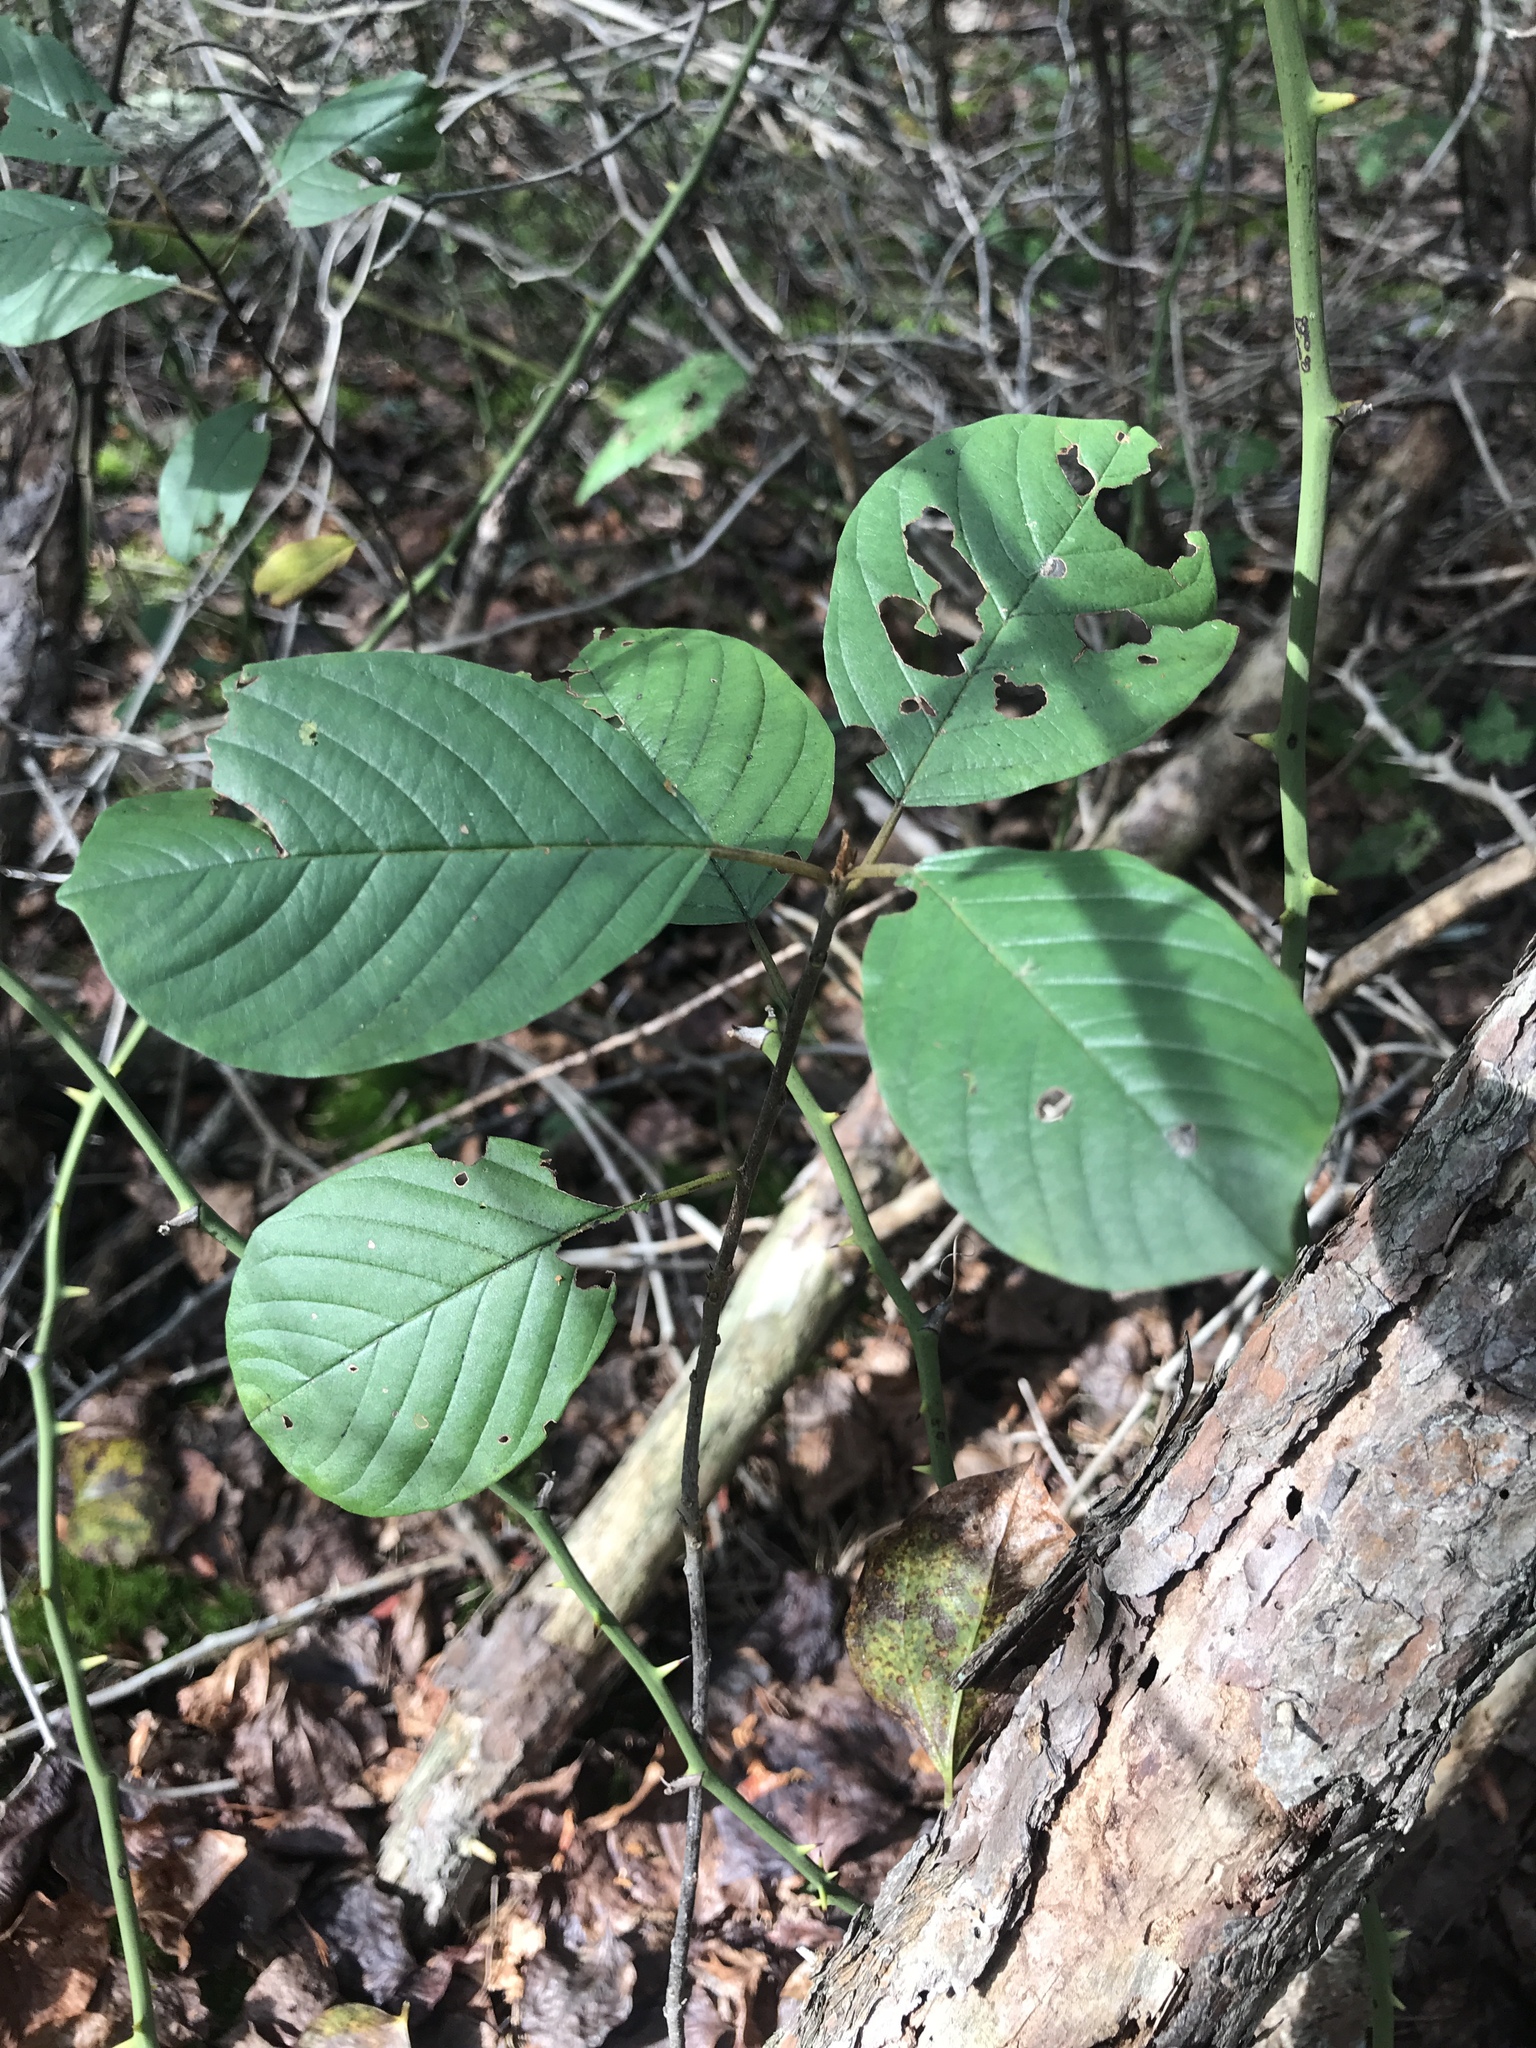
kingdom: Plantae
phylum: Tracheophyta
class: Magnoliopsida
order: Rosales
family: Rhamnaceae
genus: Frangula
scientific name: Frangula alnus
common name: Alder buckthorn
